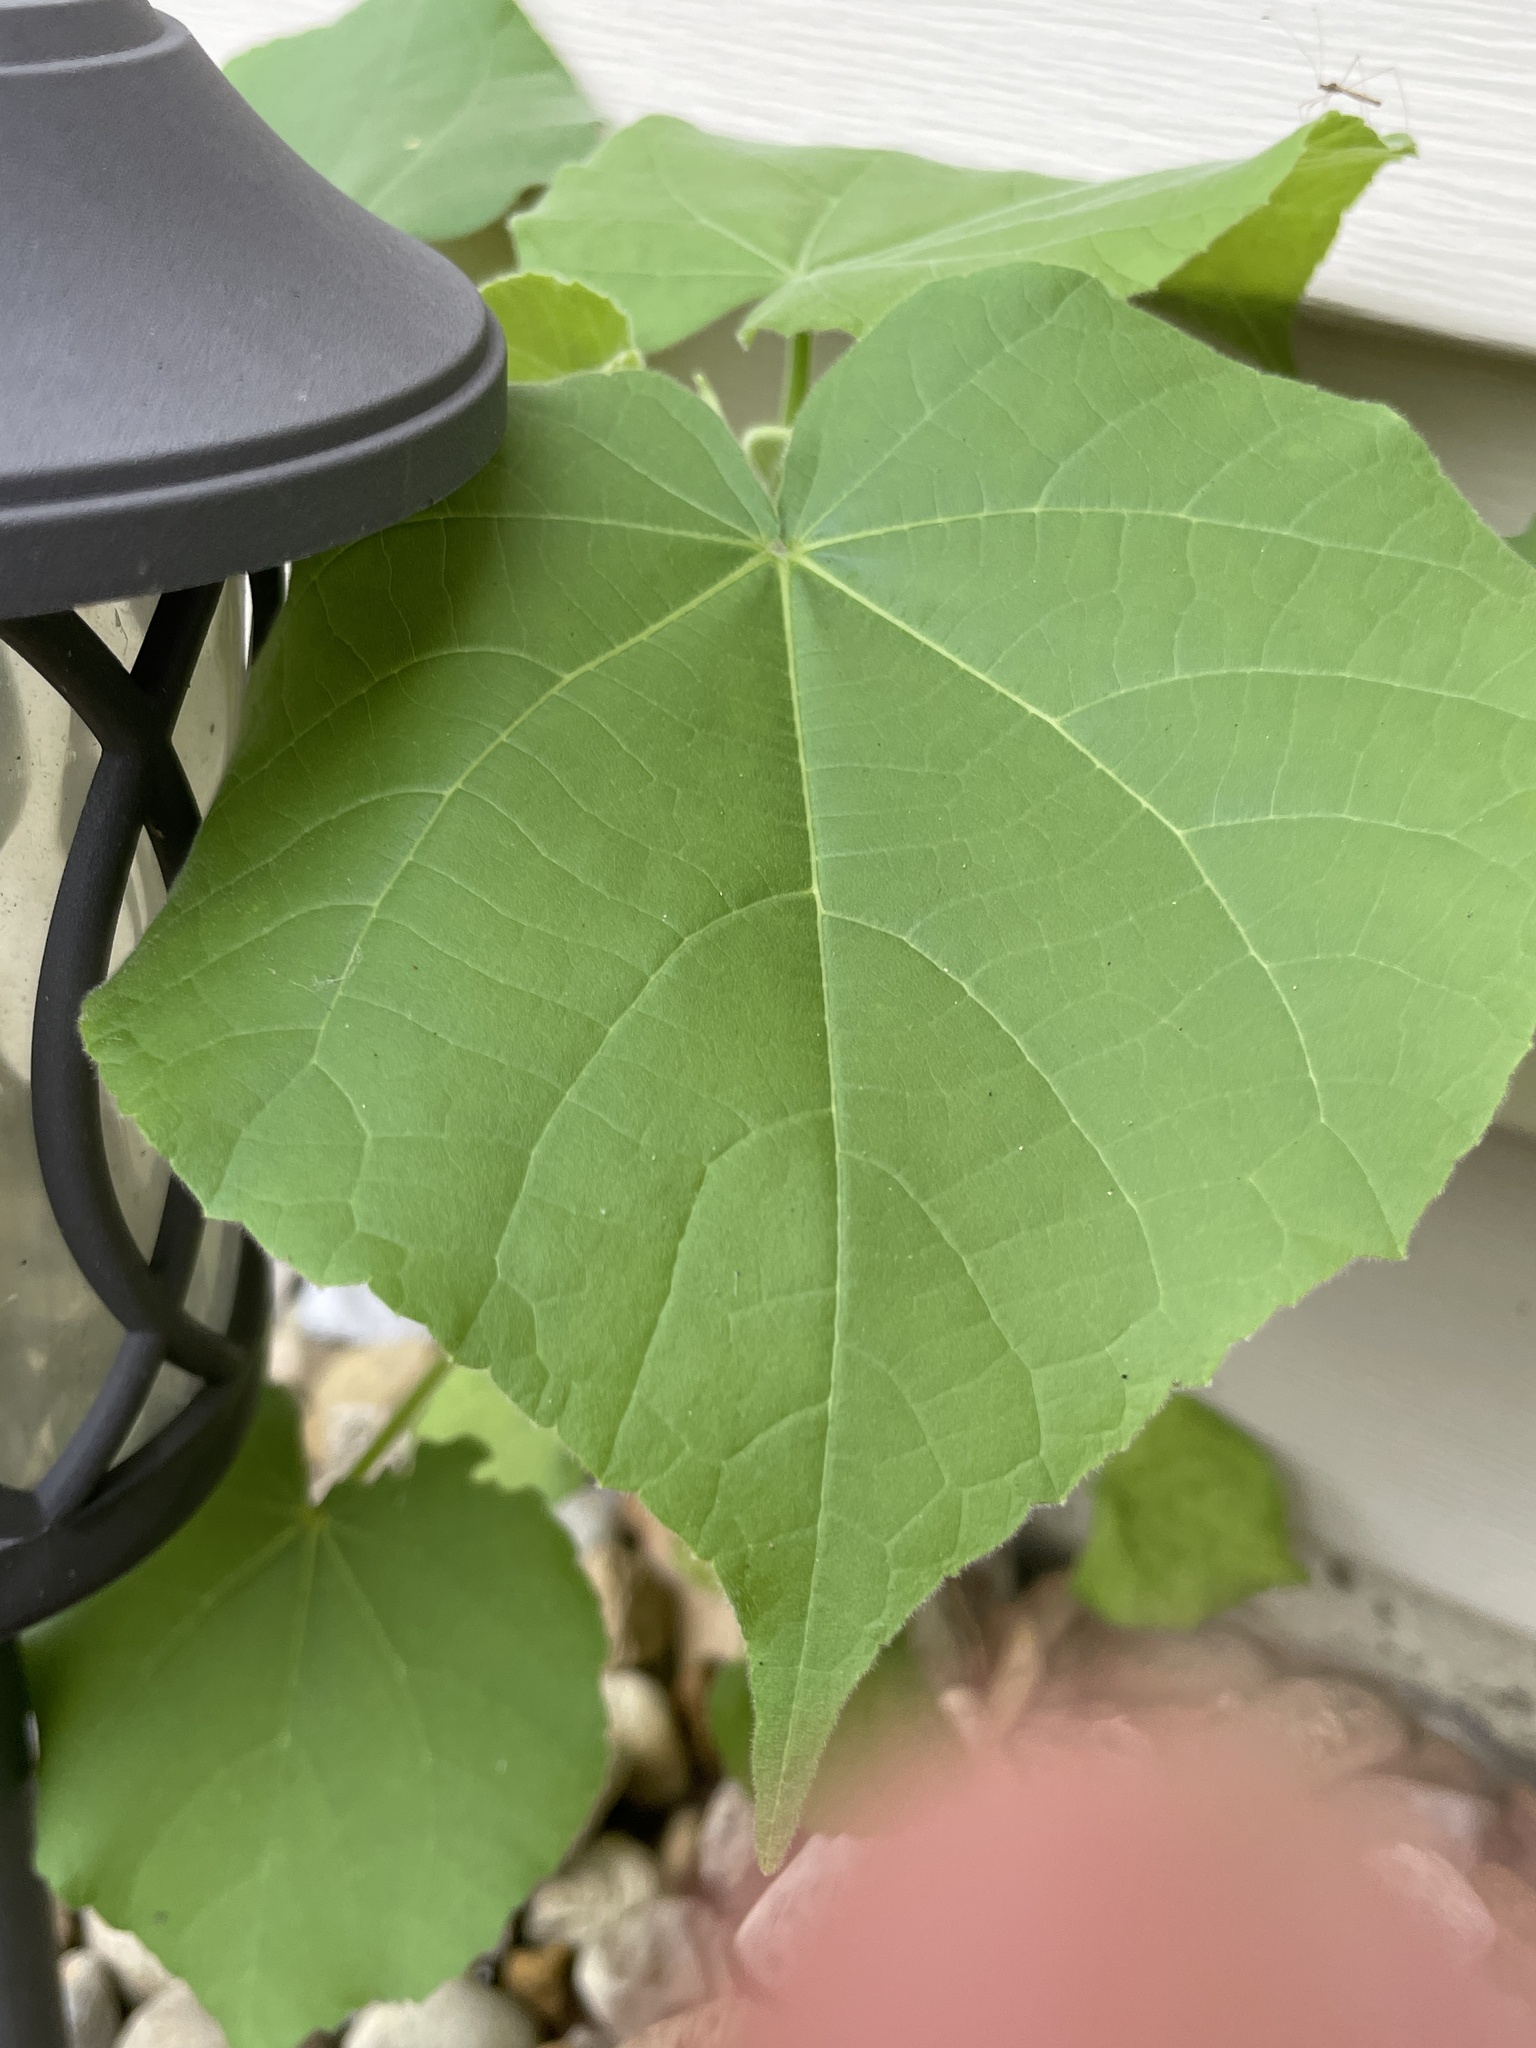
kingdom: Plantae
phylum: Tracheophyta
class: Magnoliopsida
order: Malvales
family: Malvaceae
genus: Abutilon
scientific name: Abutilon theophrasti
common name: Velvetleaf
